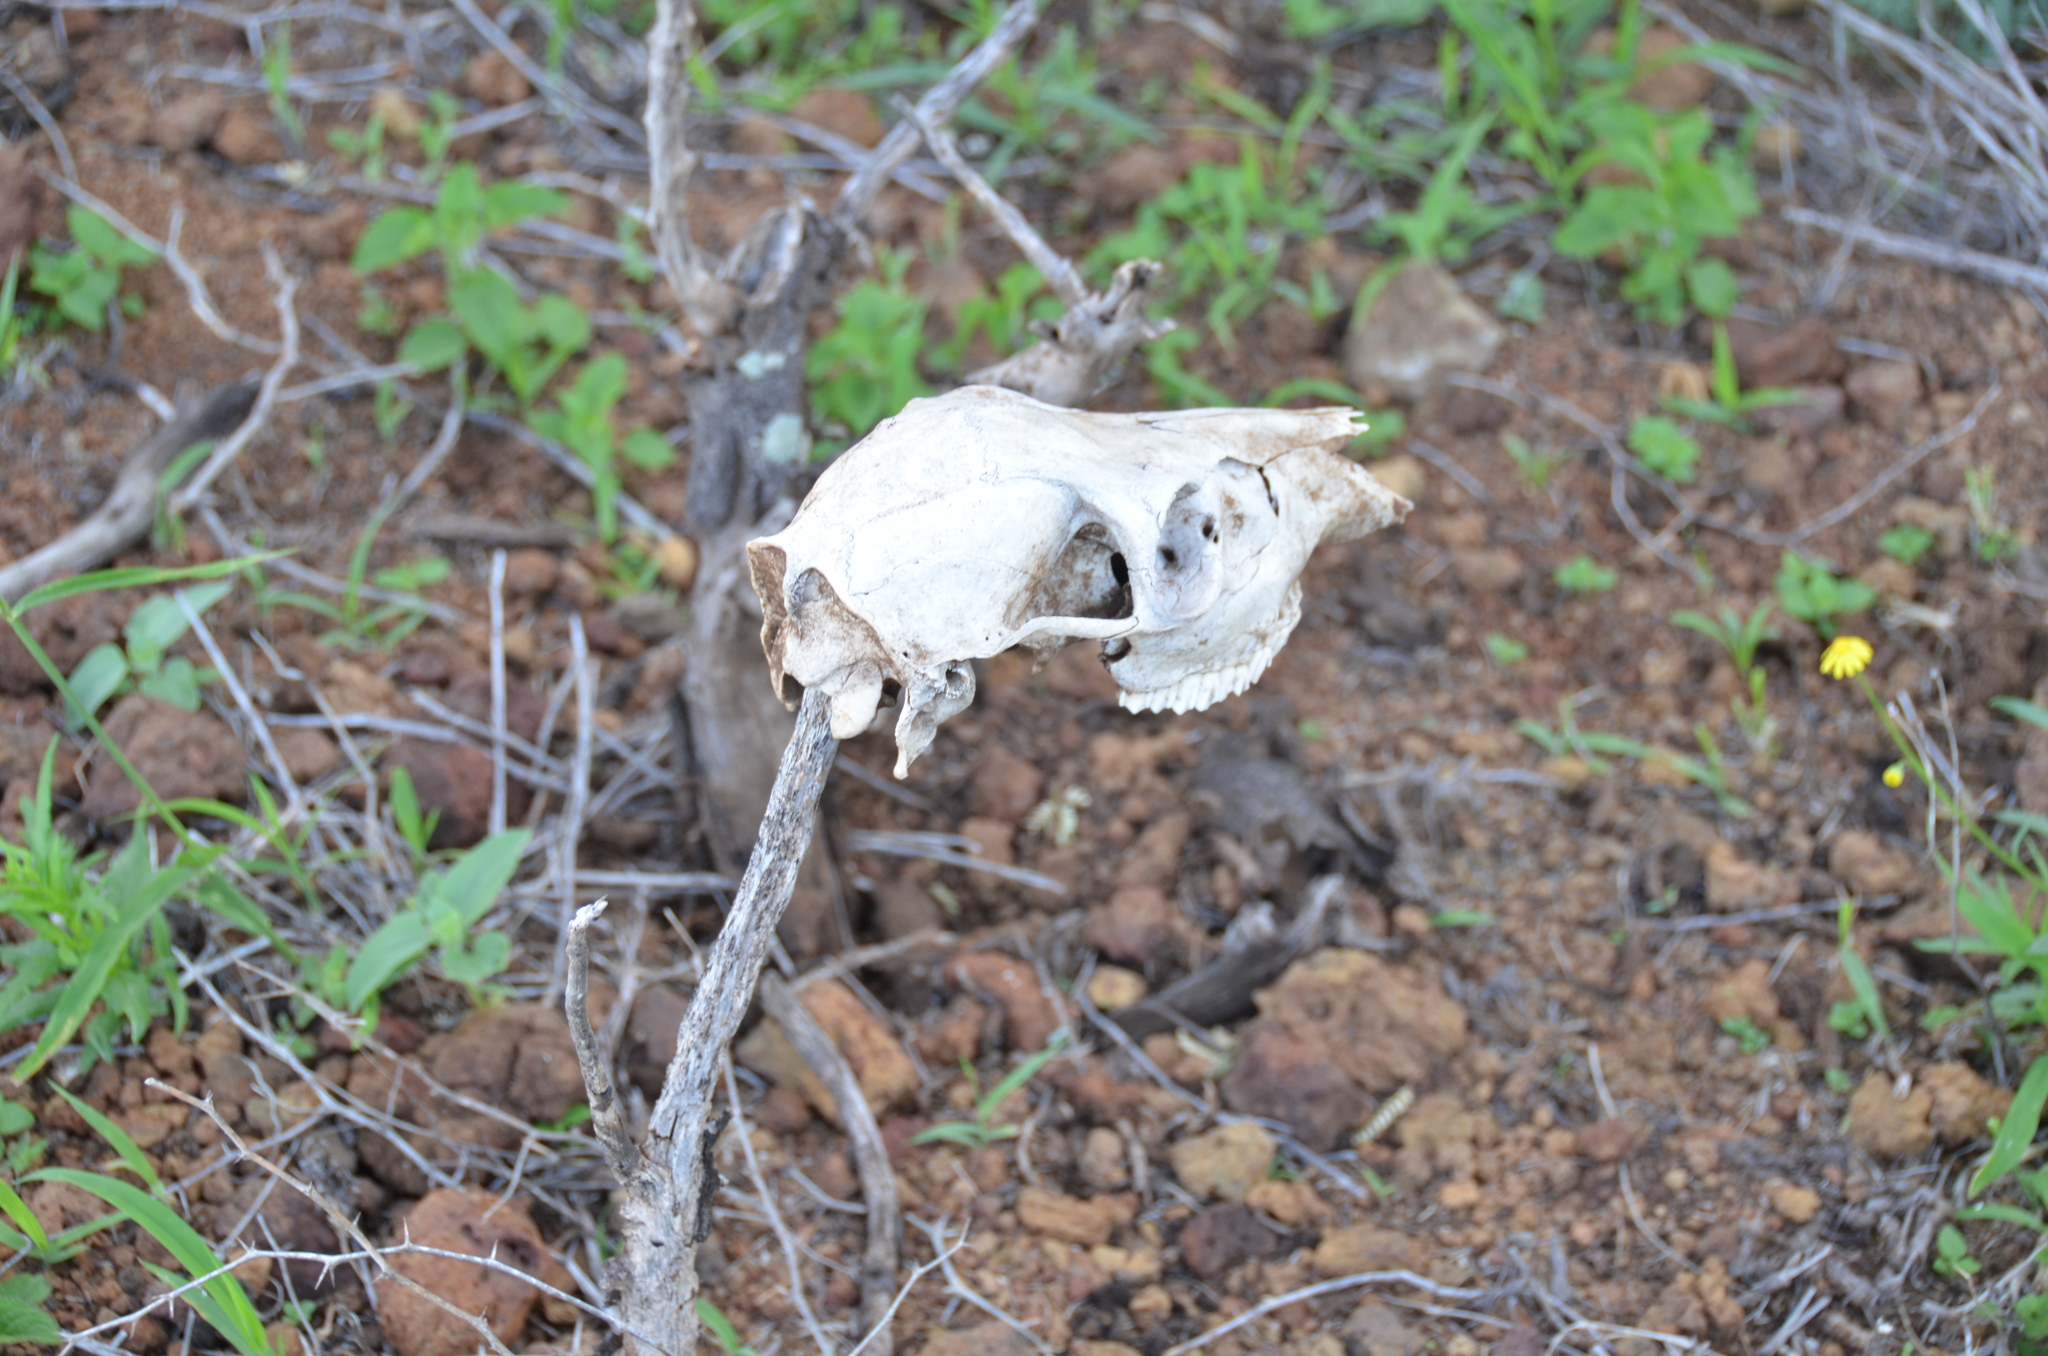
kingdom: Animalia
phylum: Chordata
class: Mammalia
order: Artiodactyla
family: Cervidae
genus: Axis
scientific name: Axis axis
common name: Chital
